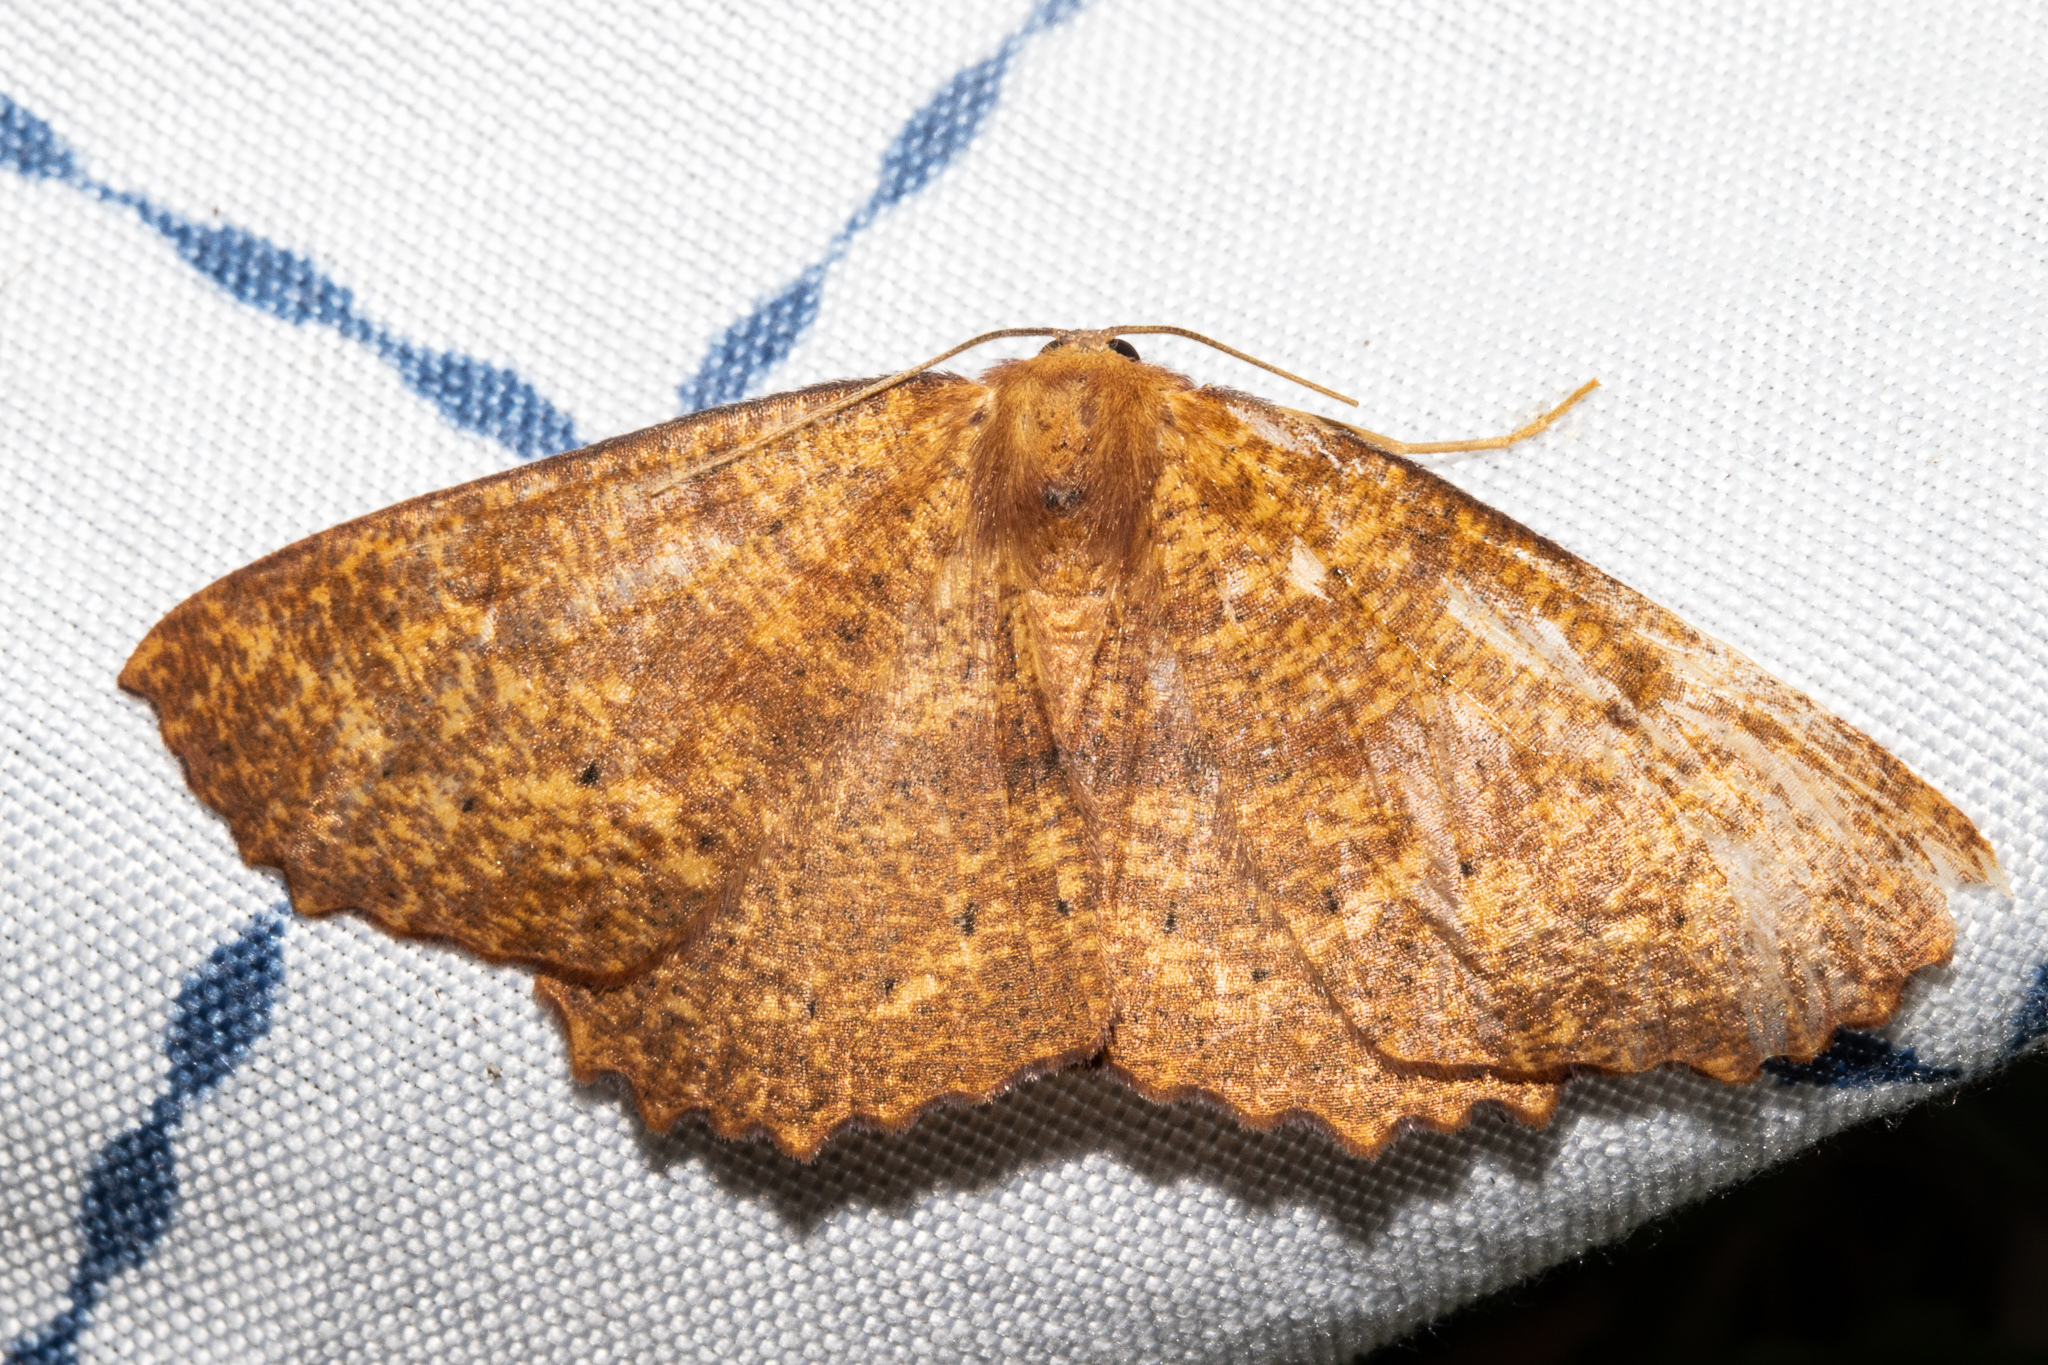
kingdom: Animalia
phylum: Arthropoda
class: Insecta
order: Lepidoptera
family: Geometridae
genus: Xyridacma
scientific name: Xyridacma ustaria
